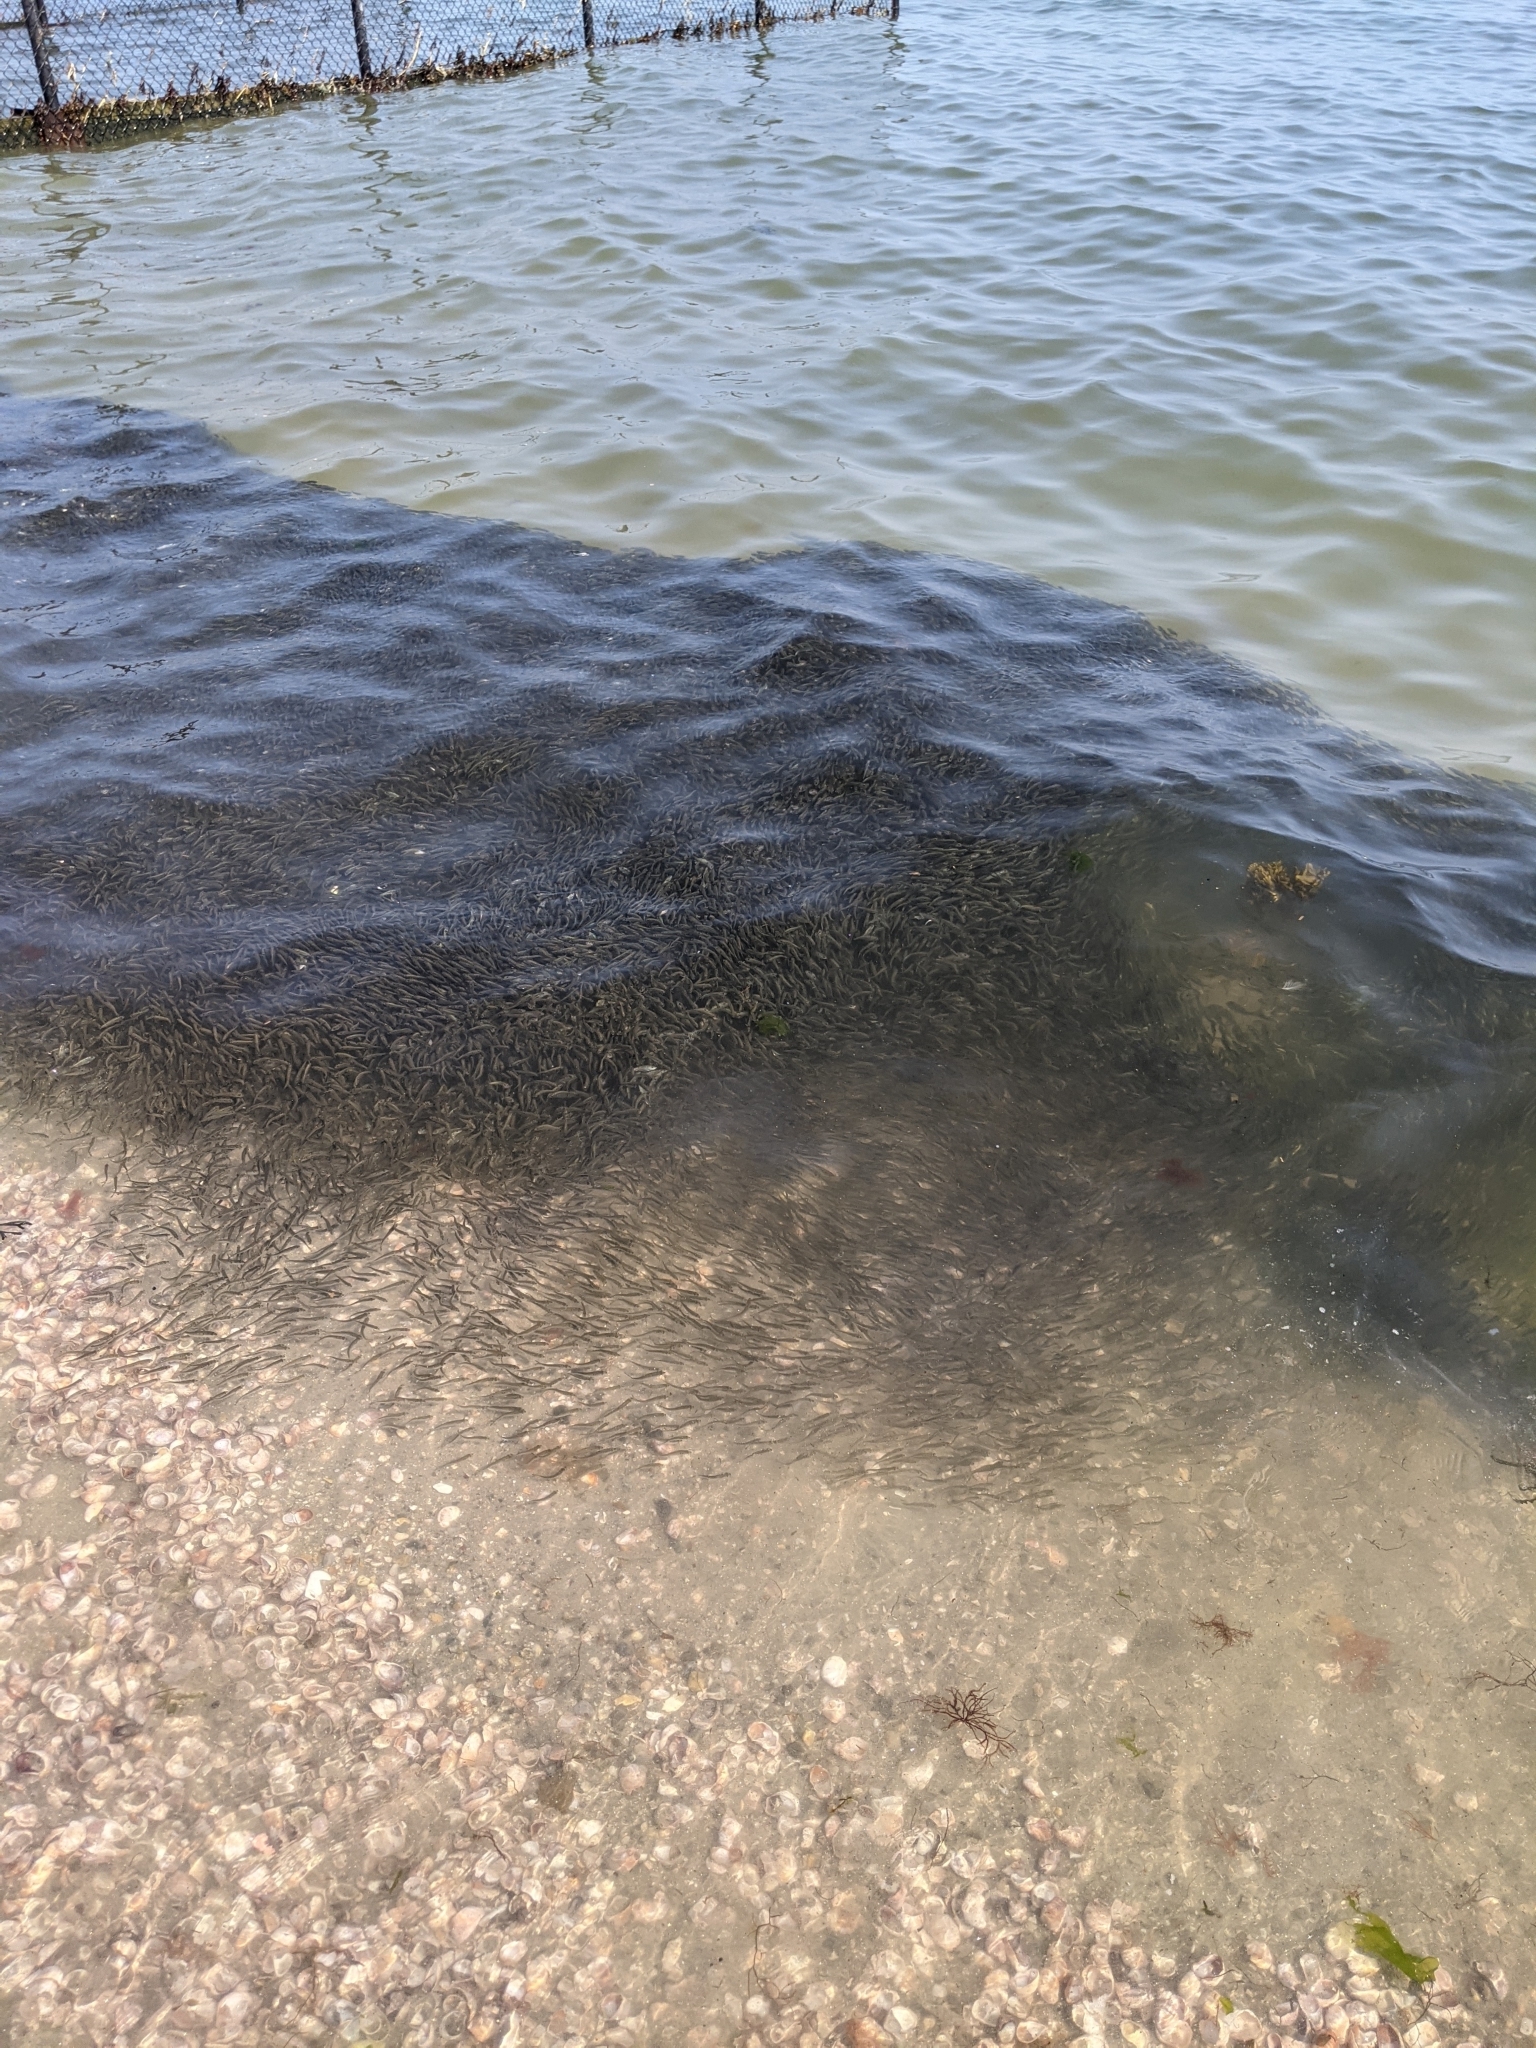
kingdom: Animalia
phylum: Chordata
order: Clupeiformes
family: Clupeidae
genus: Brevoortia
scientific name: Brevoortia tyrannus
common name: Atlantic menhaden
